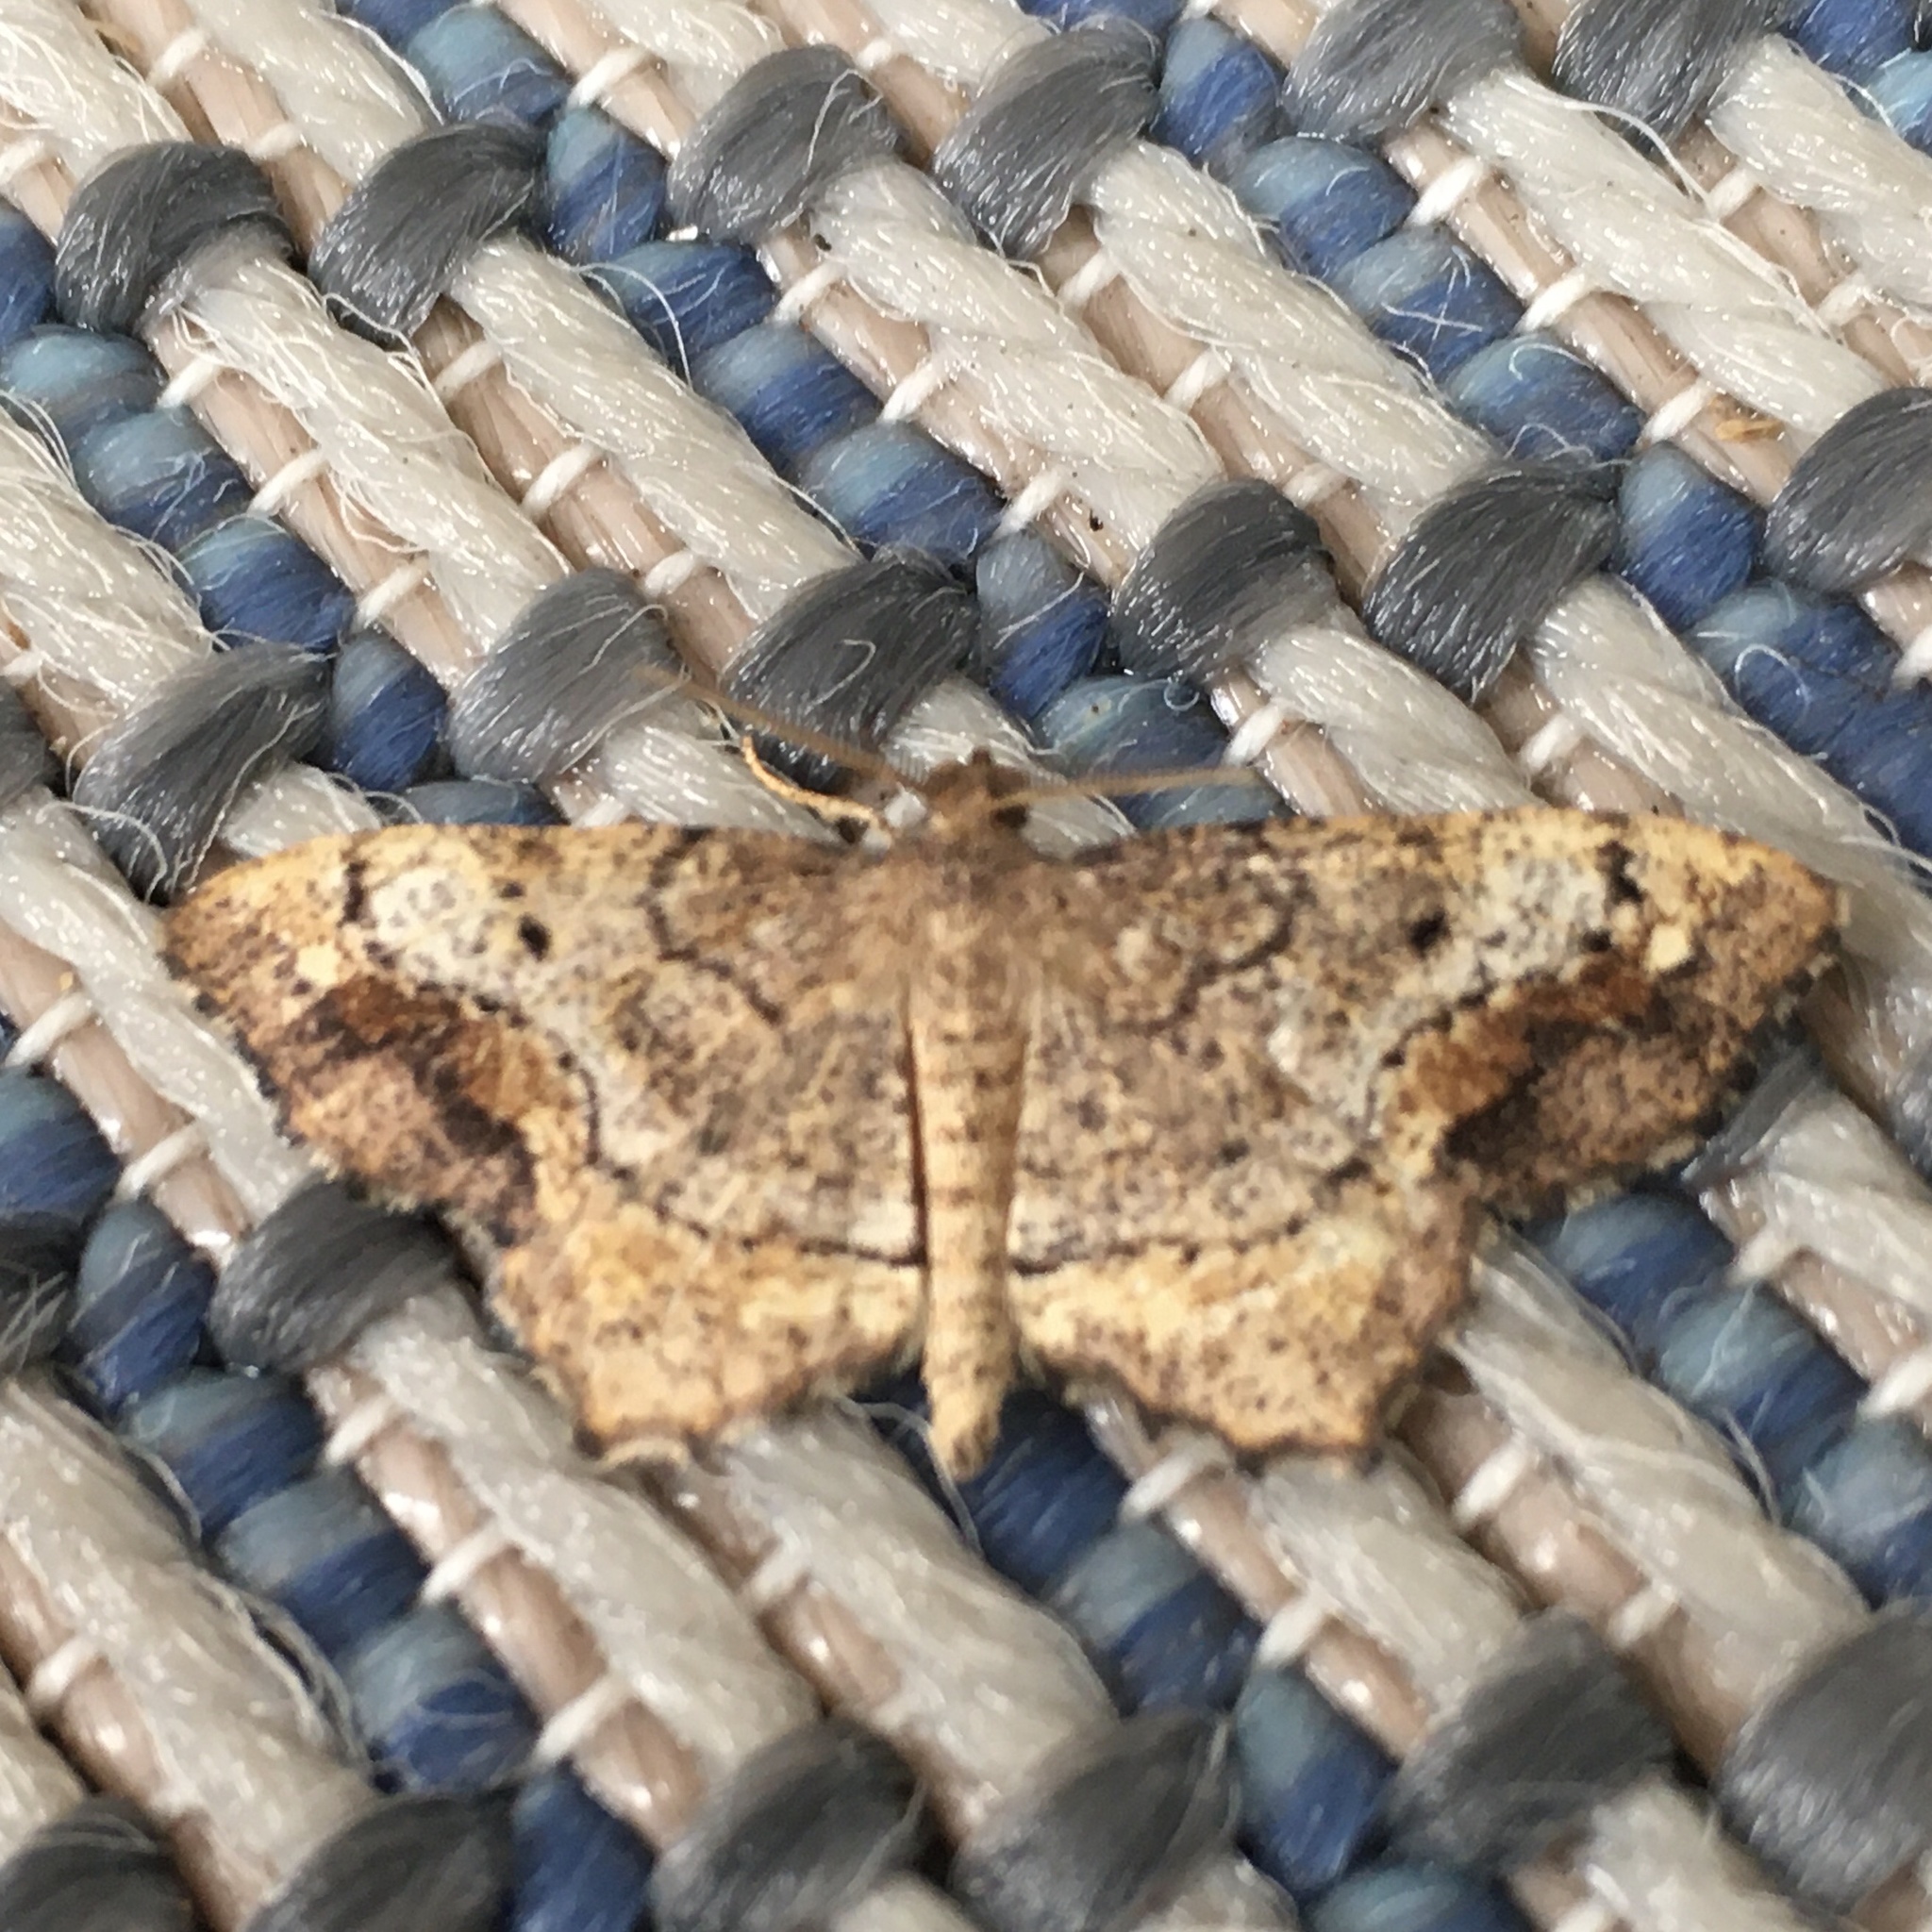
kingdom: Animalia
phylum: Arthropoda
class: Insecta
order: Lepidoptera
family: Geometridae
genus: Hypagyrtis
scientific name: Hypagyrtis unipunctata
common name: One-spotted variant
